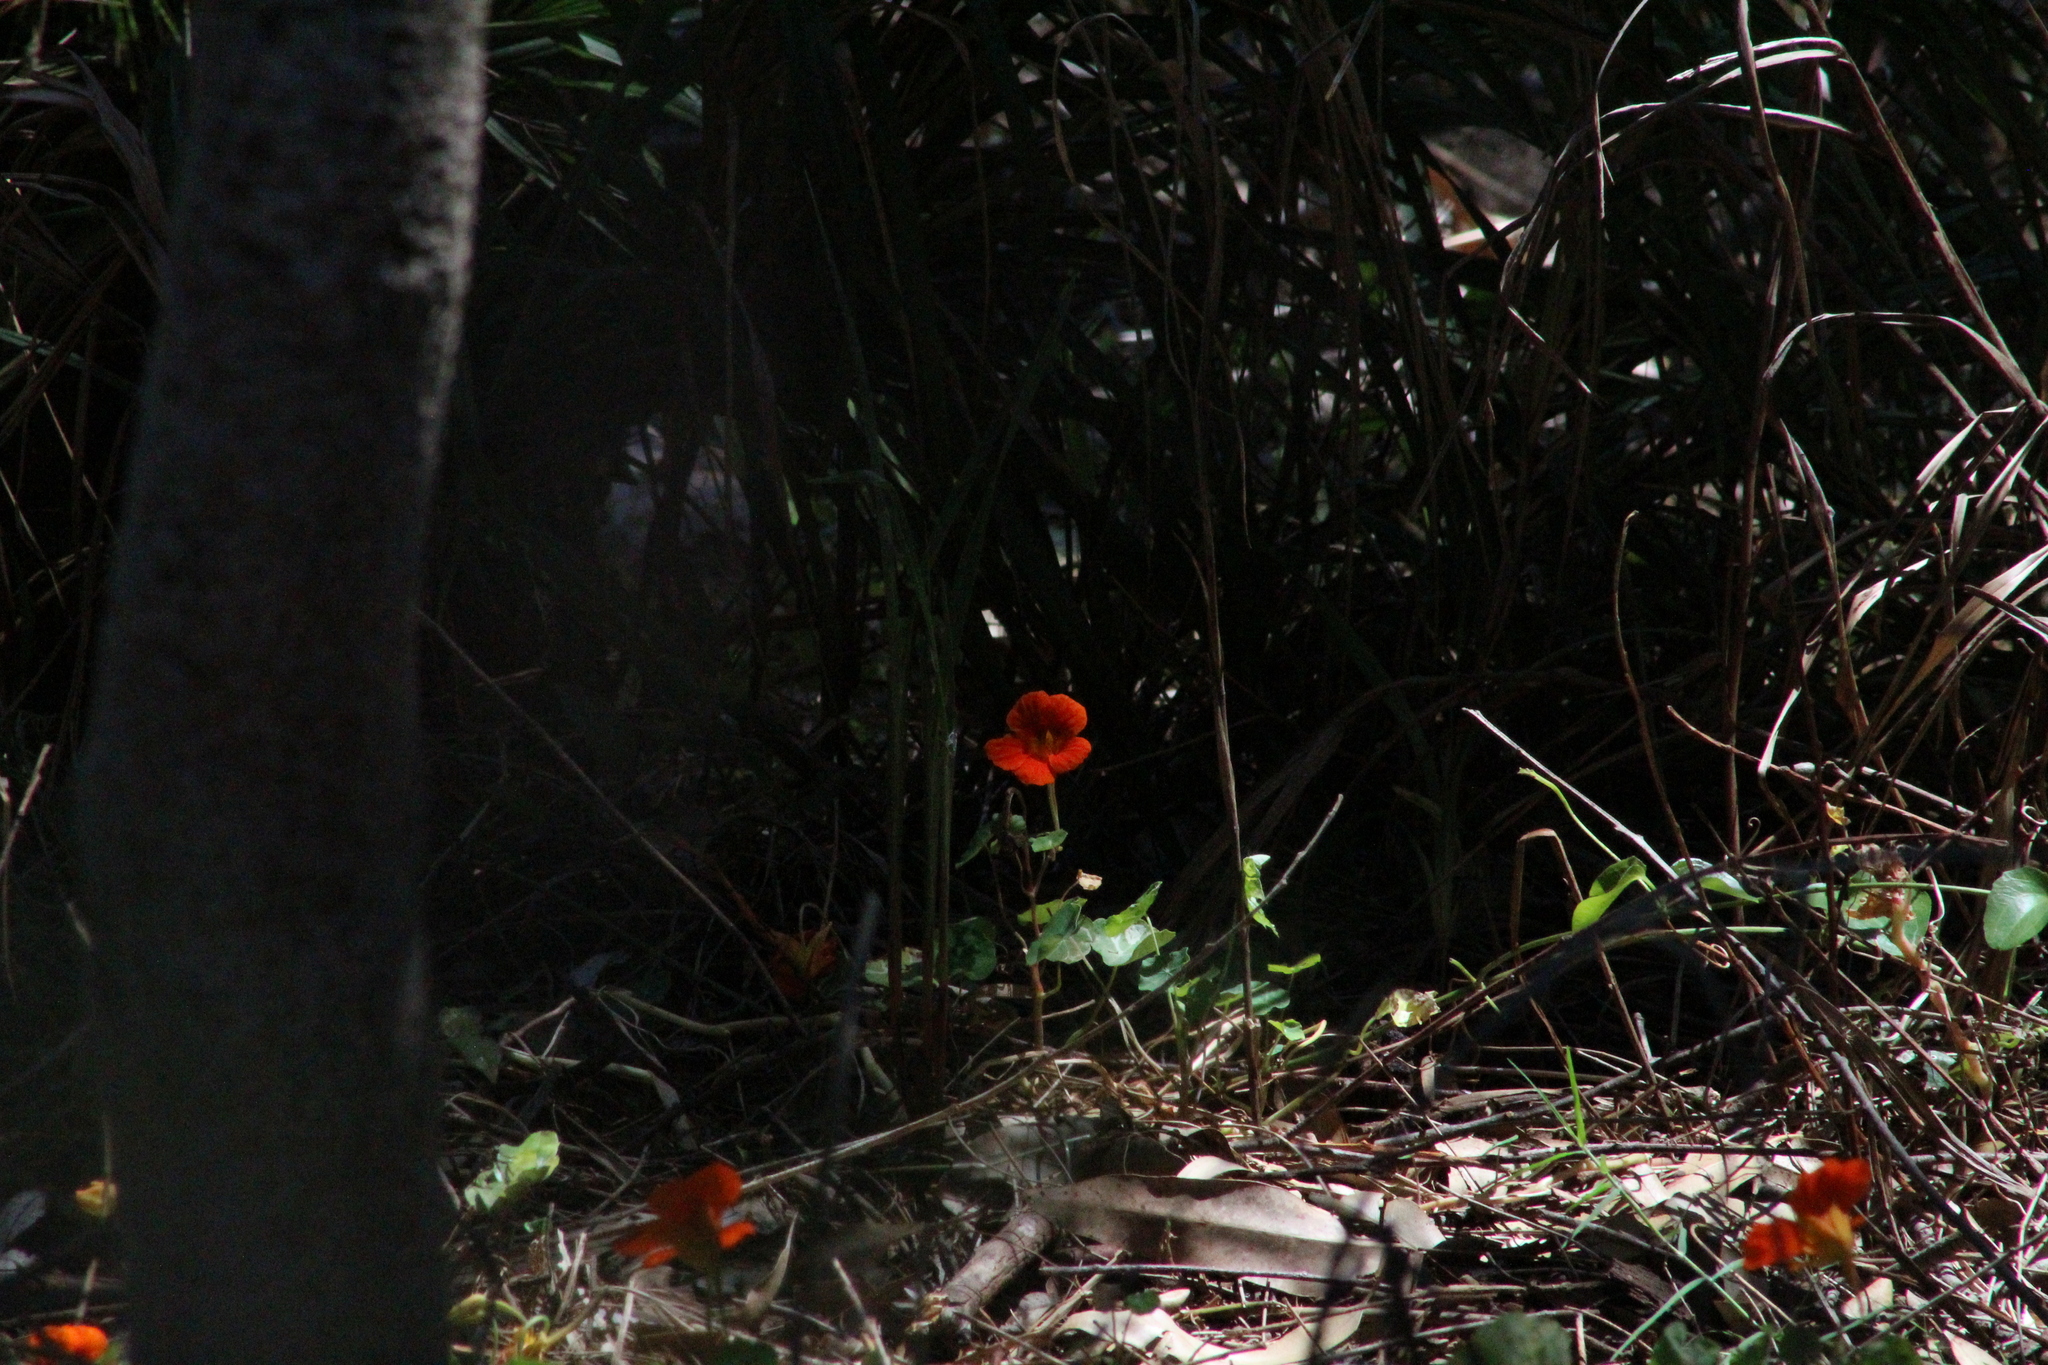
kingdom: Plantae
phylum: Tracheophyta
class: Magnoliopsida
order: Brassicales
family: Tropaeolaceae
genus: Tropaeolum
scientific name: Tropaeolum majus
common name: Nasturtium
